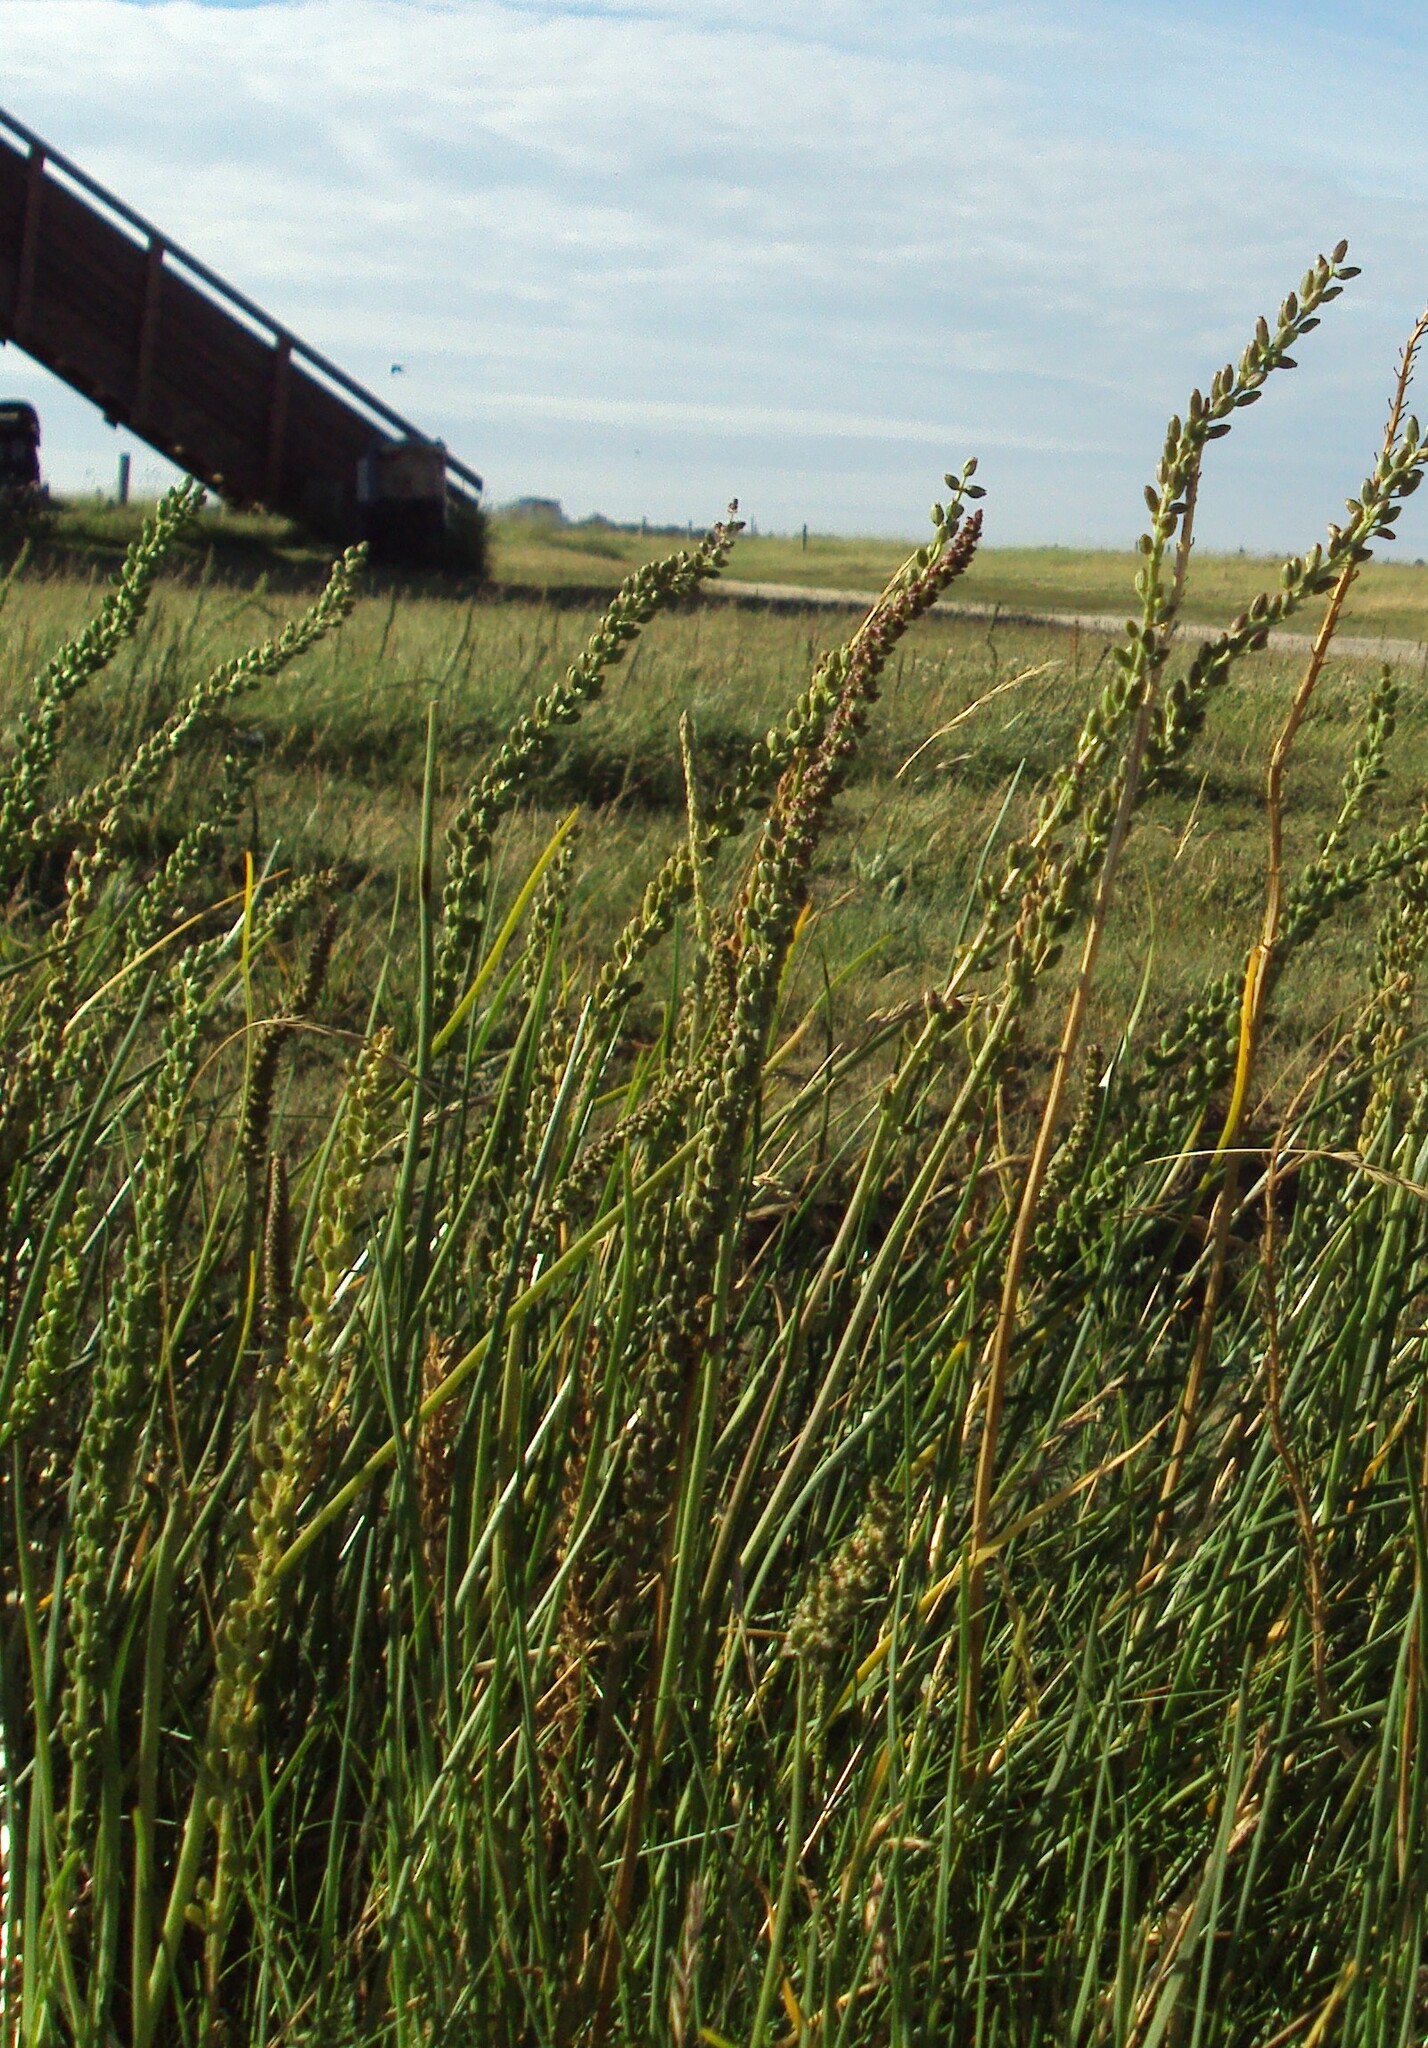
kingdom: Plantae
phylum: Tracheophyta
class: Liliopsida
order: Alismatales
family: Juncaginaceae
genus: Triglochin
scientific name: Triglochin maritima
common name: Sea arrowgrass
